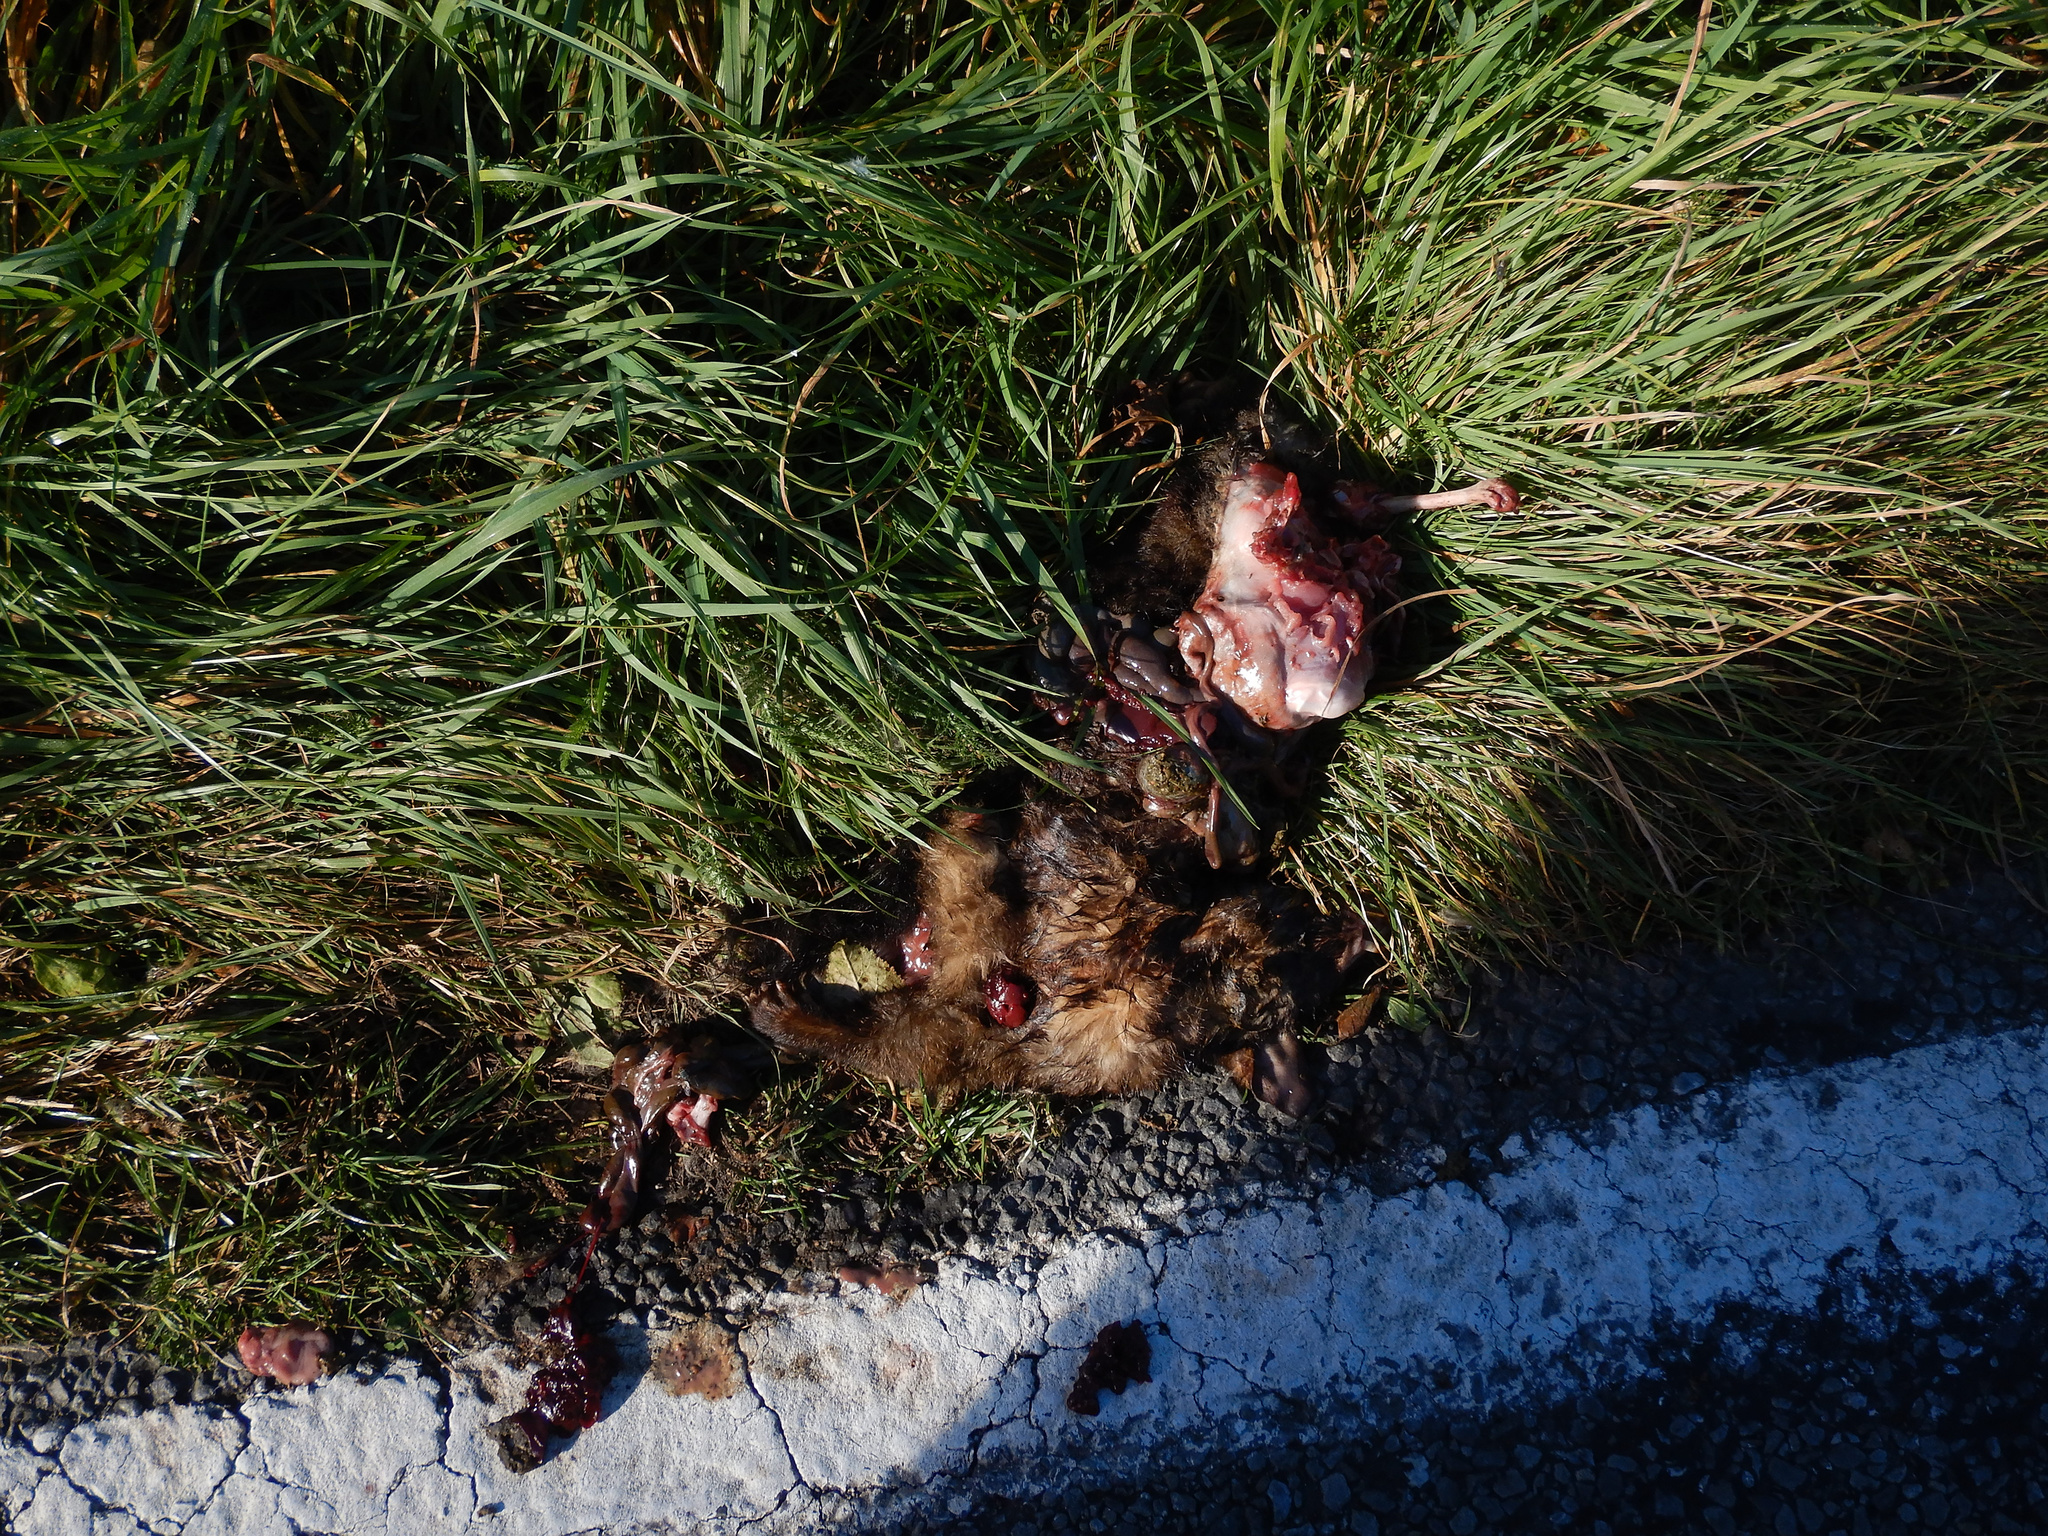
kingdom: Animalia
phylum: Chordata
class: Mammalia
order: Diprotodontia
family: Phalangeridae
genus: Trichosurus
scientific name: Trichosurus vulpecula
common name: Common brushtail
